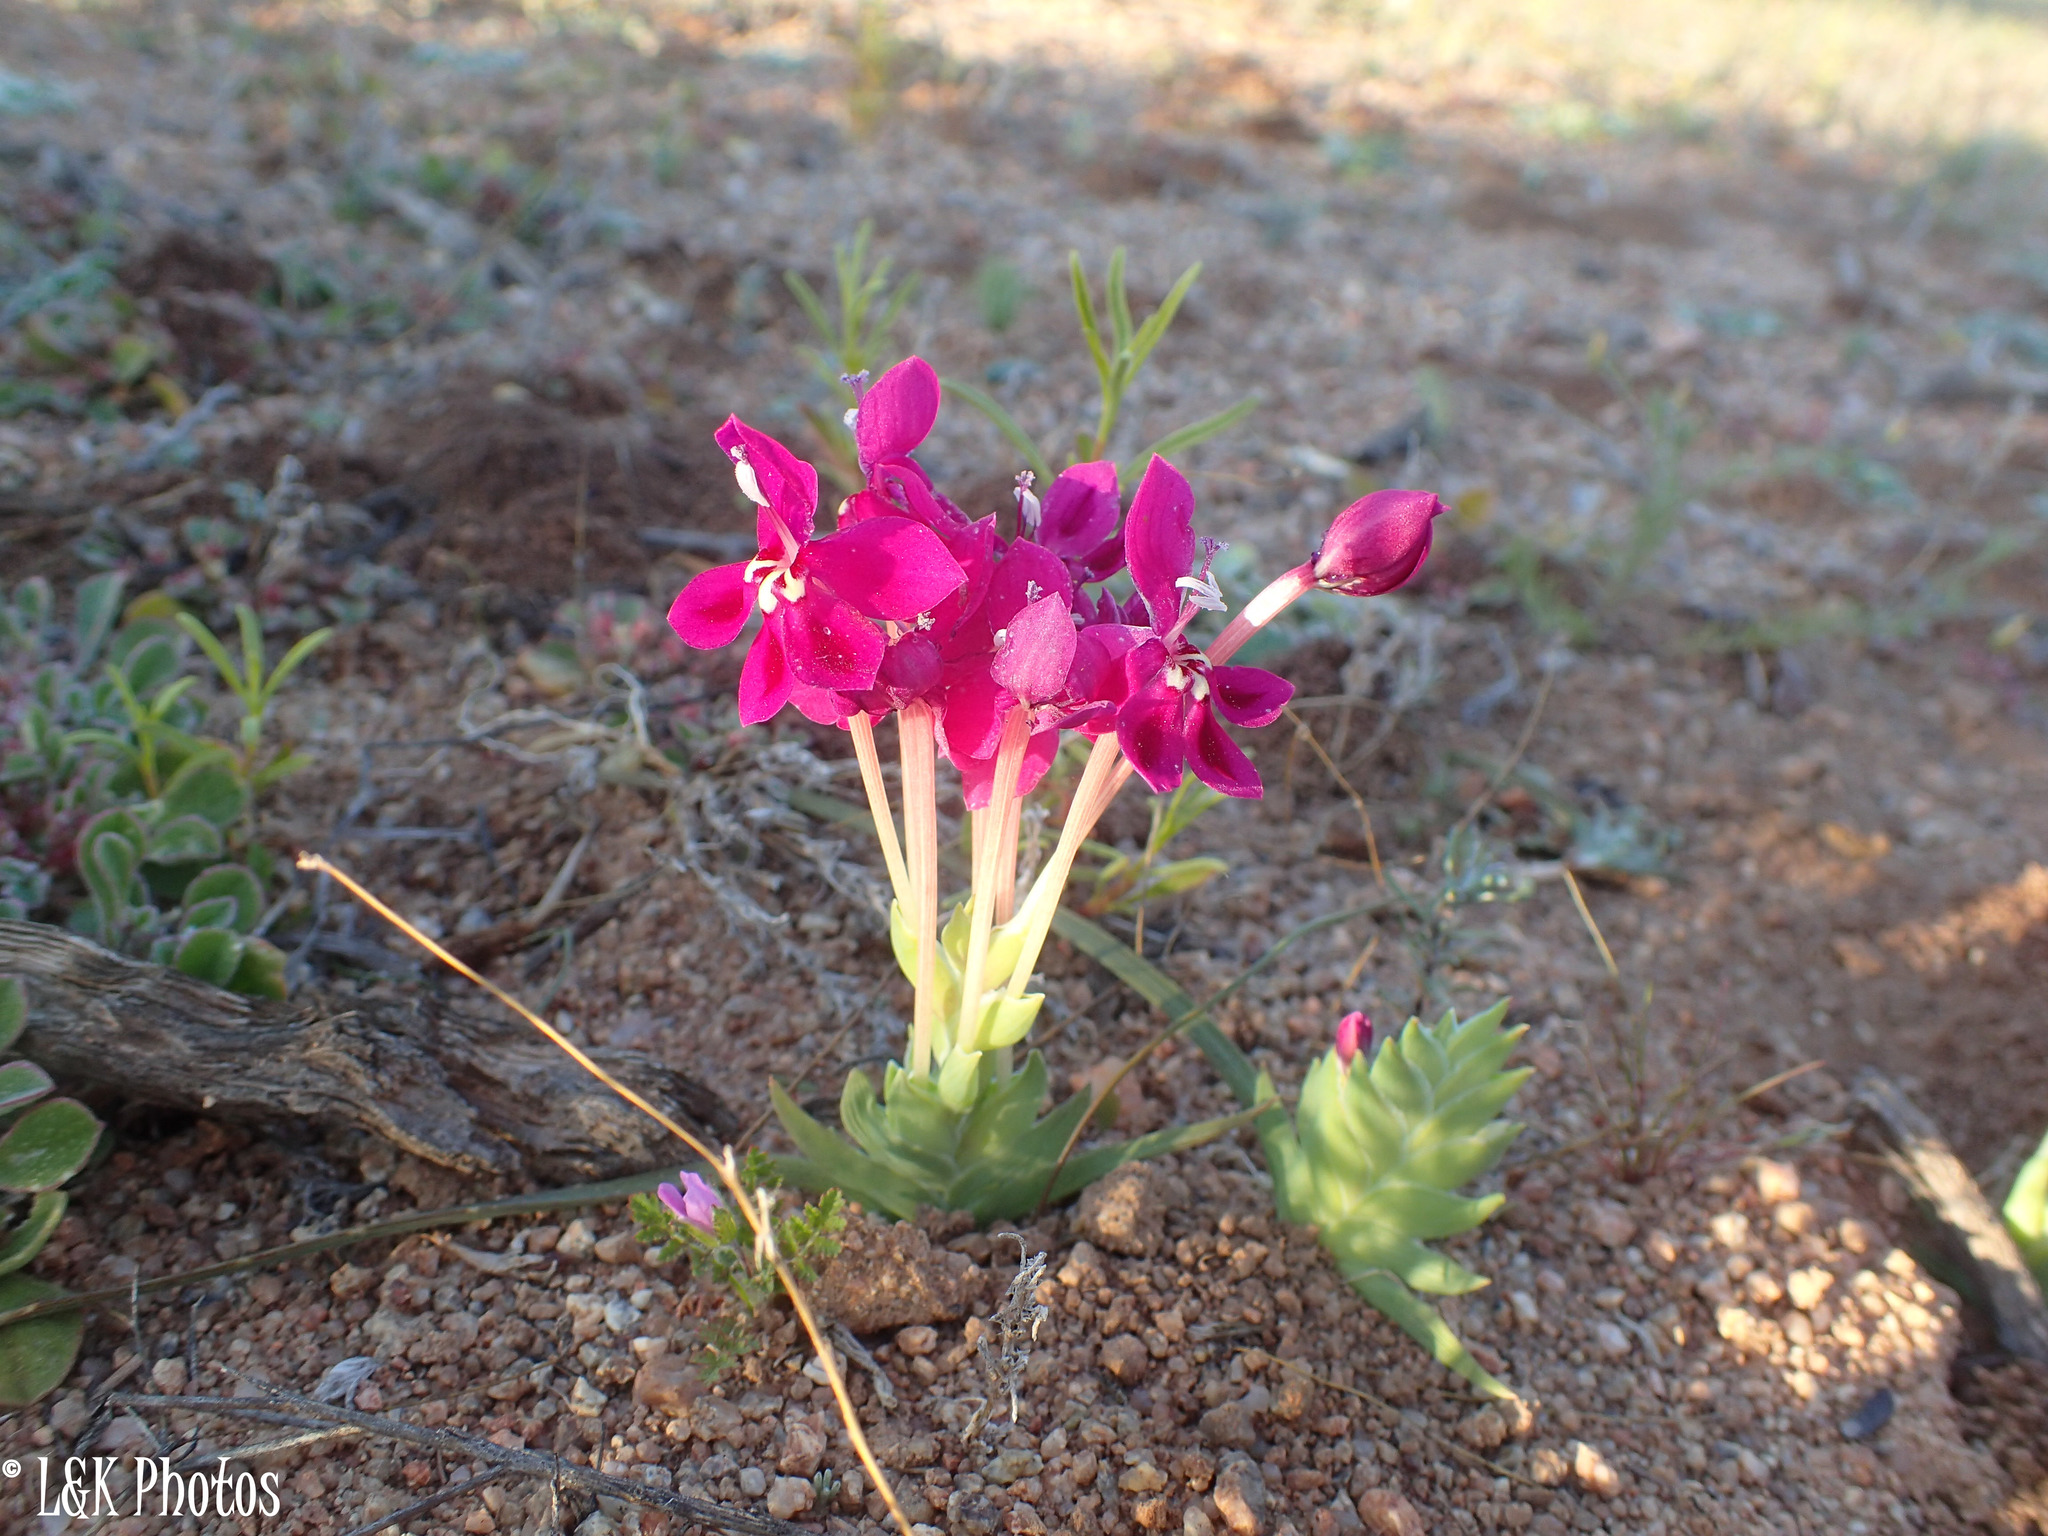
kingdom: Plantae
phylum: Tracheophyta
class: Liliopsida
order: Asparagales
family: Iridaceae
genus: Lapeirousia
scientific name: Lapeirousia silenoides
